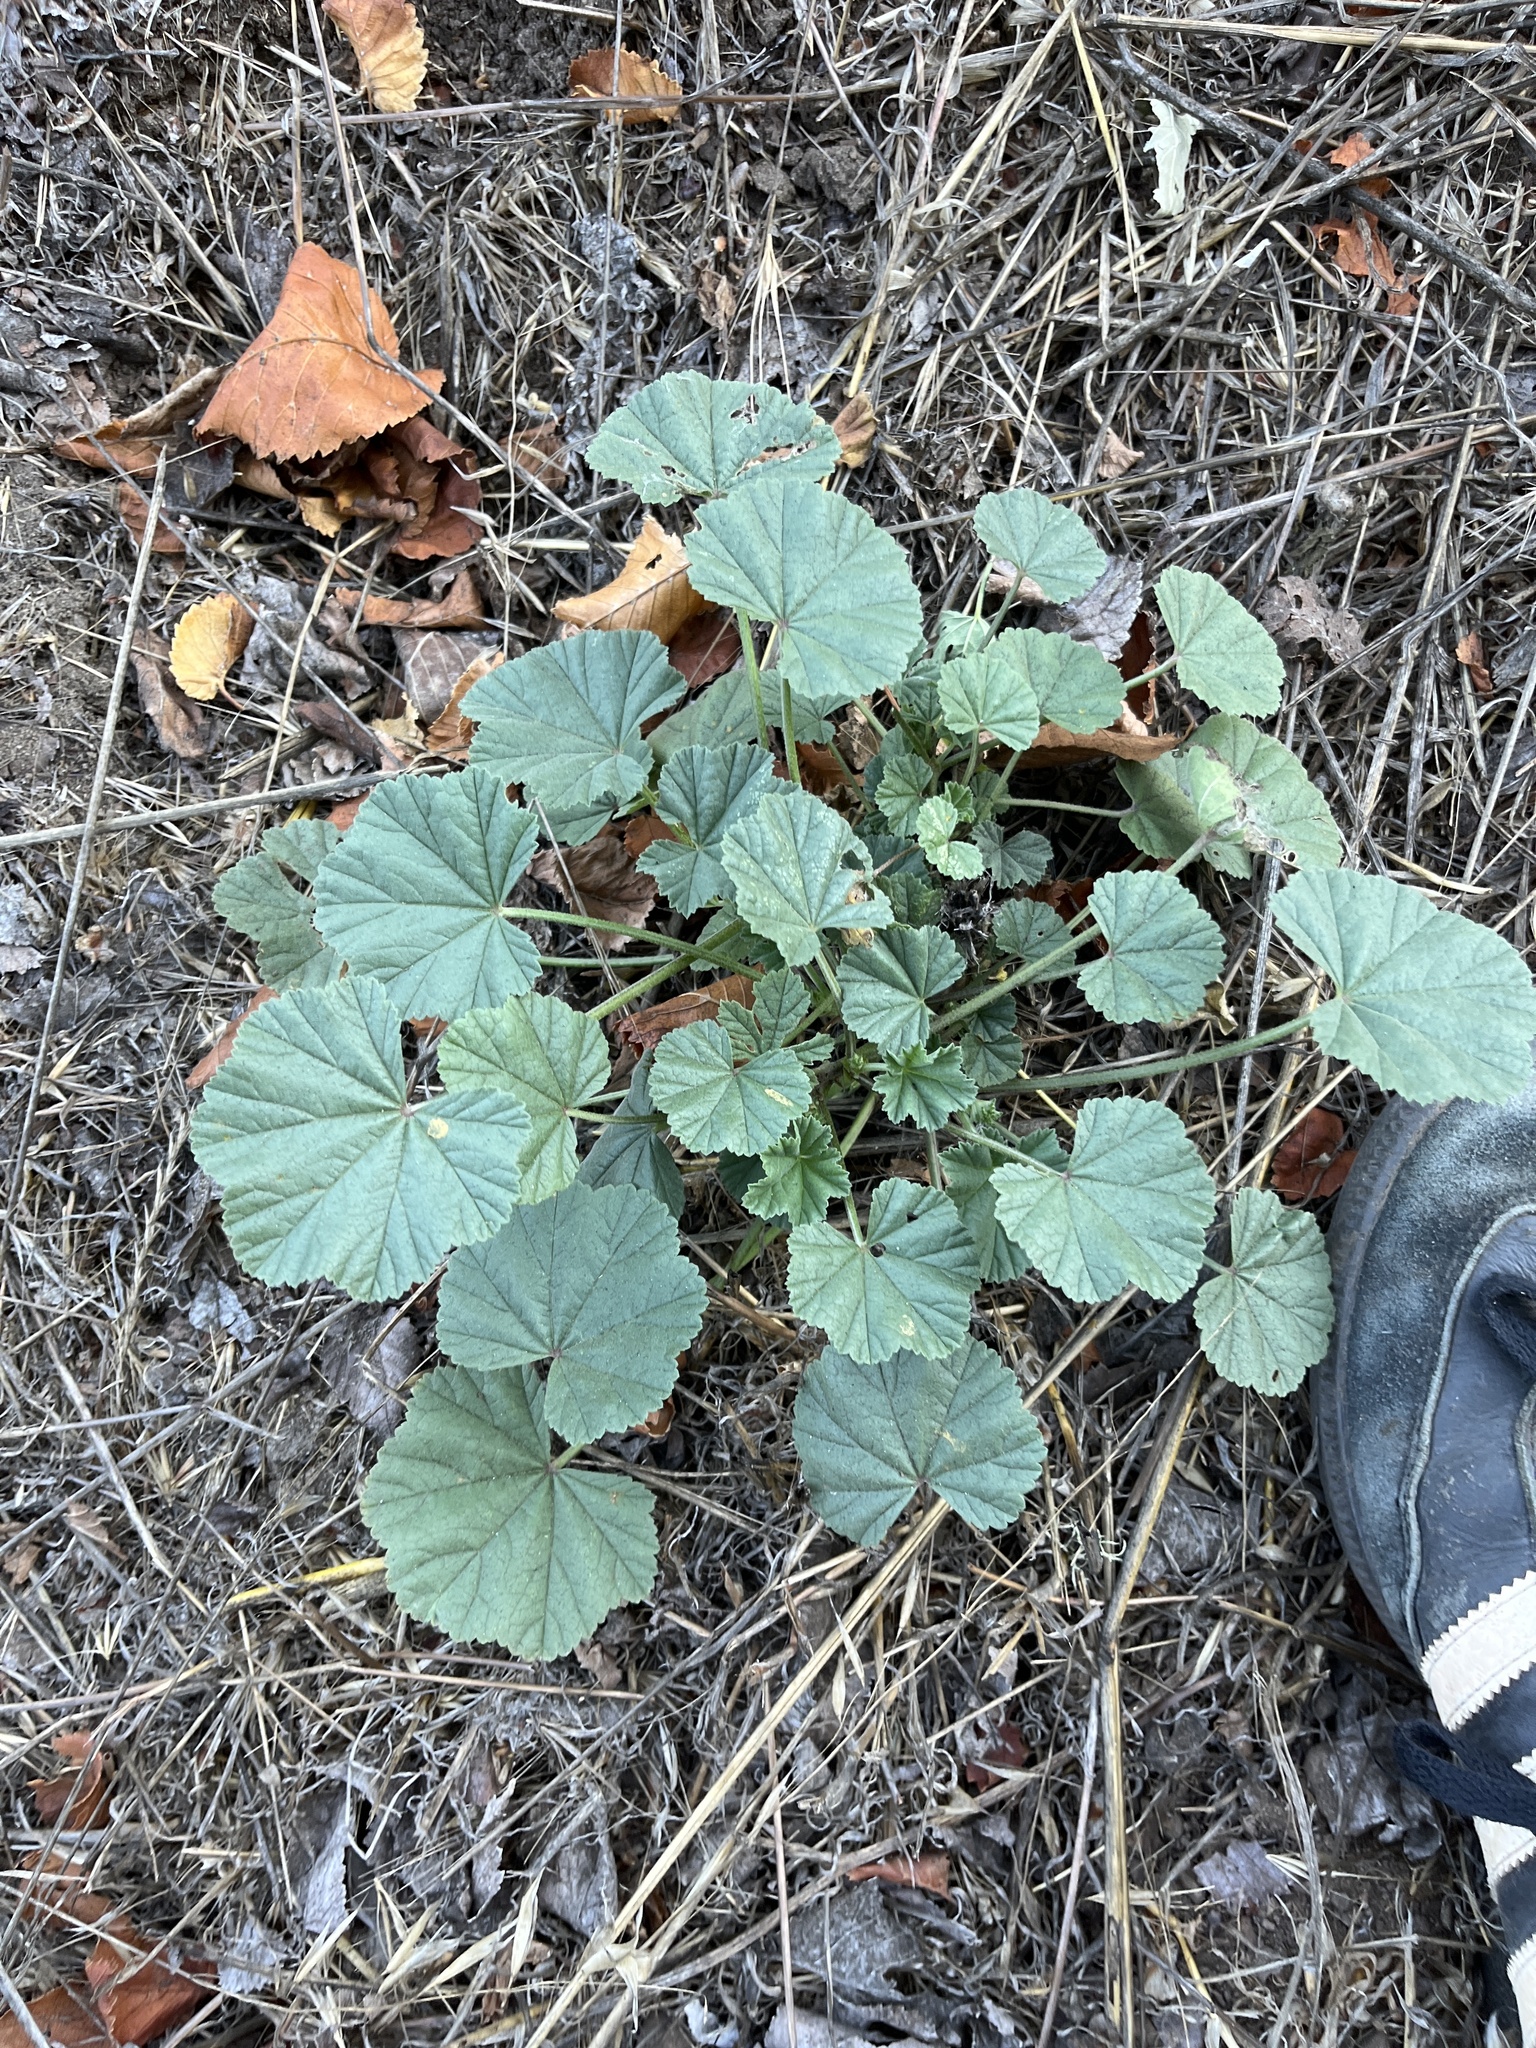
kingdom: Plantae
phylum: Tracheophyta
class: Magnoliopsida
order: Malvales
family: Malvaceae
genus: Malva
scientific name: Malva
